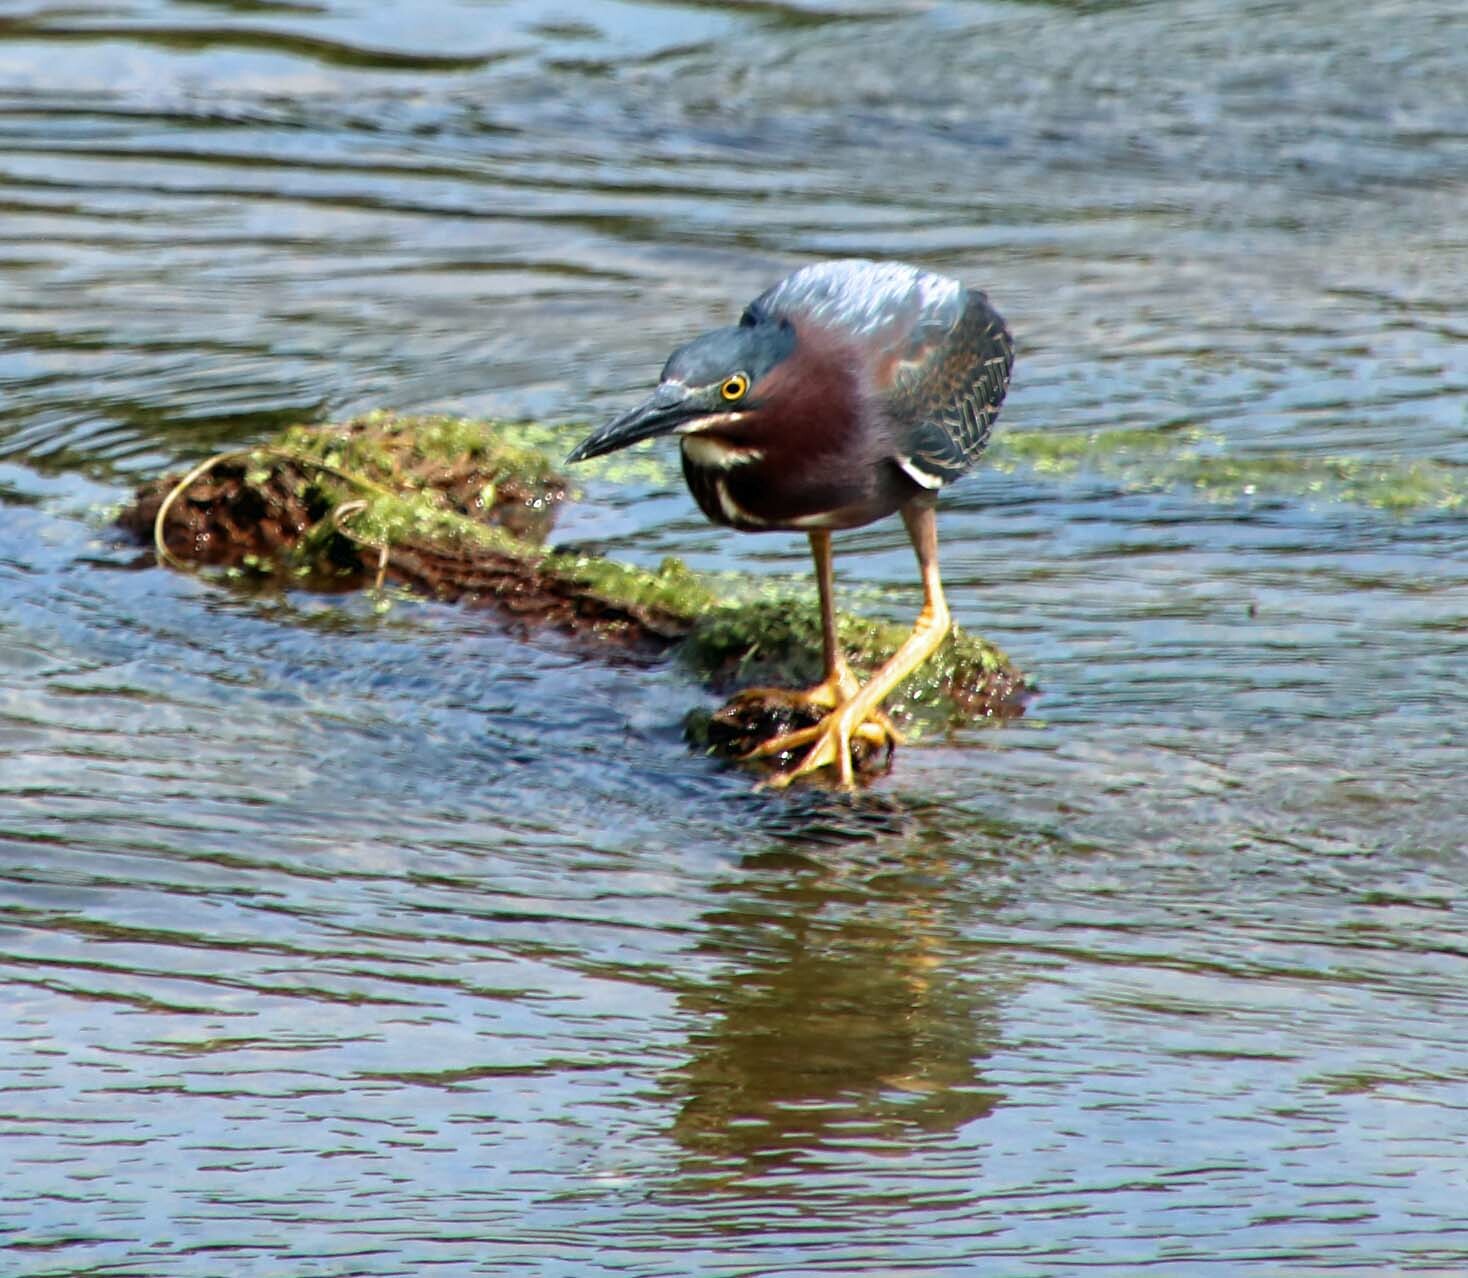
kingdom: Animalia
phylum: Chordata
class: Aves
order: Pelecaniformes
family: Ardeidae
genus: Butorides
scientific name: Butorides virescens
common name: Green heron
